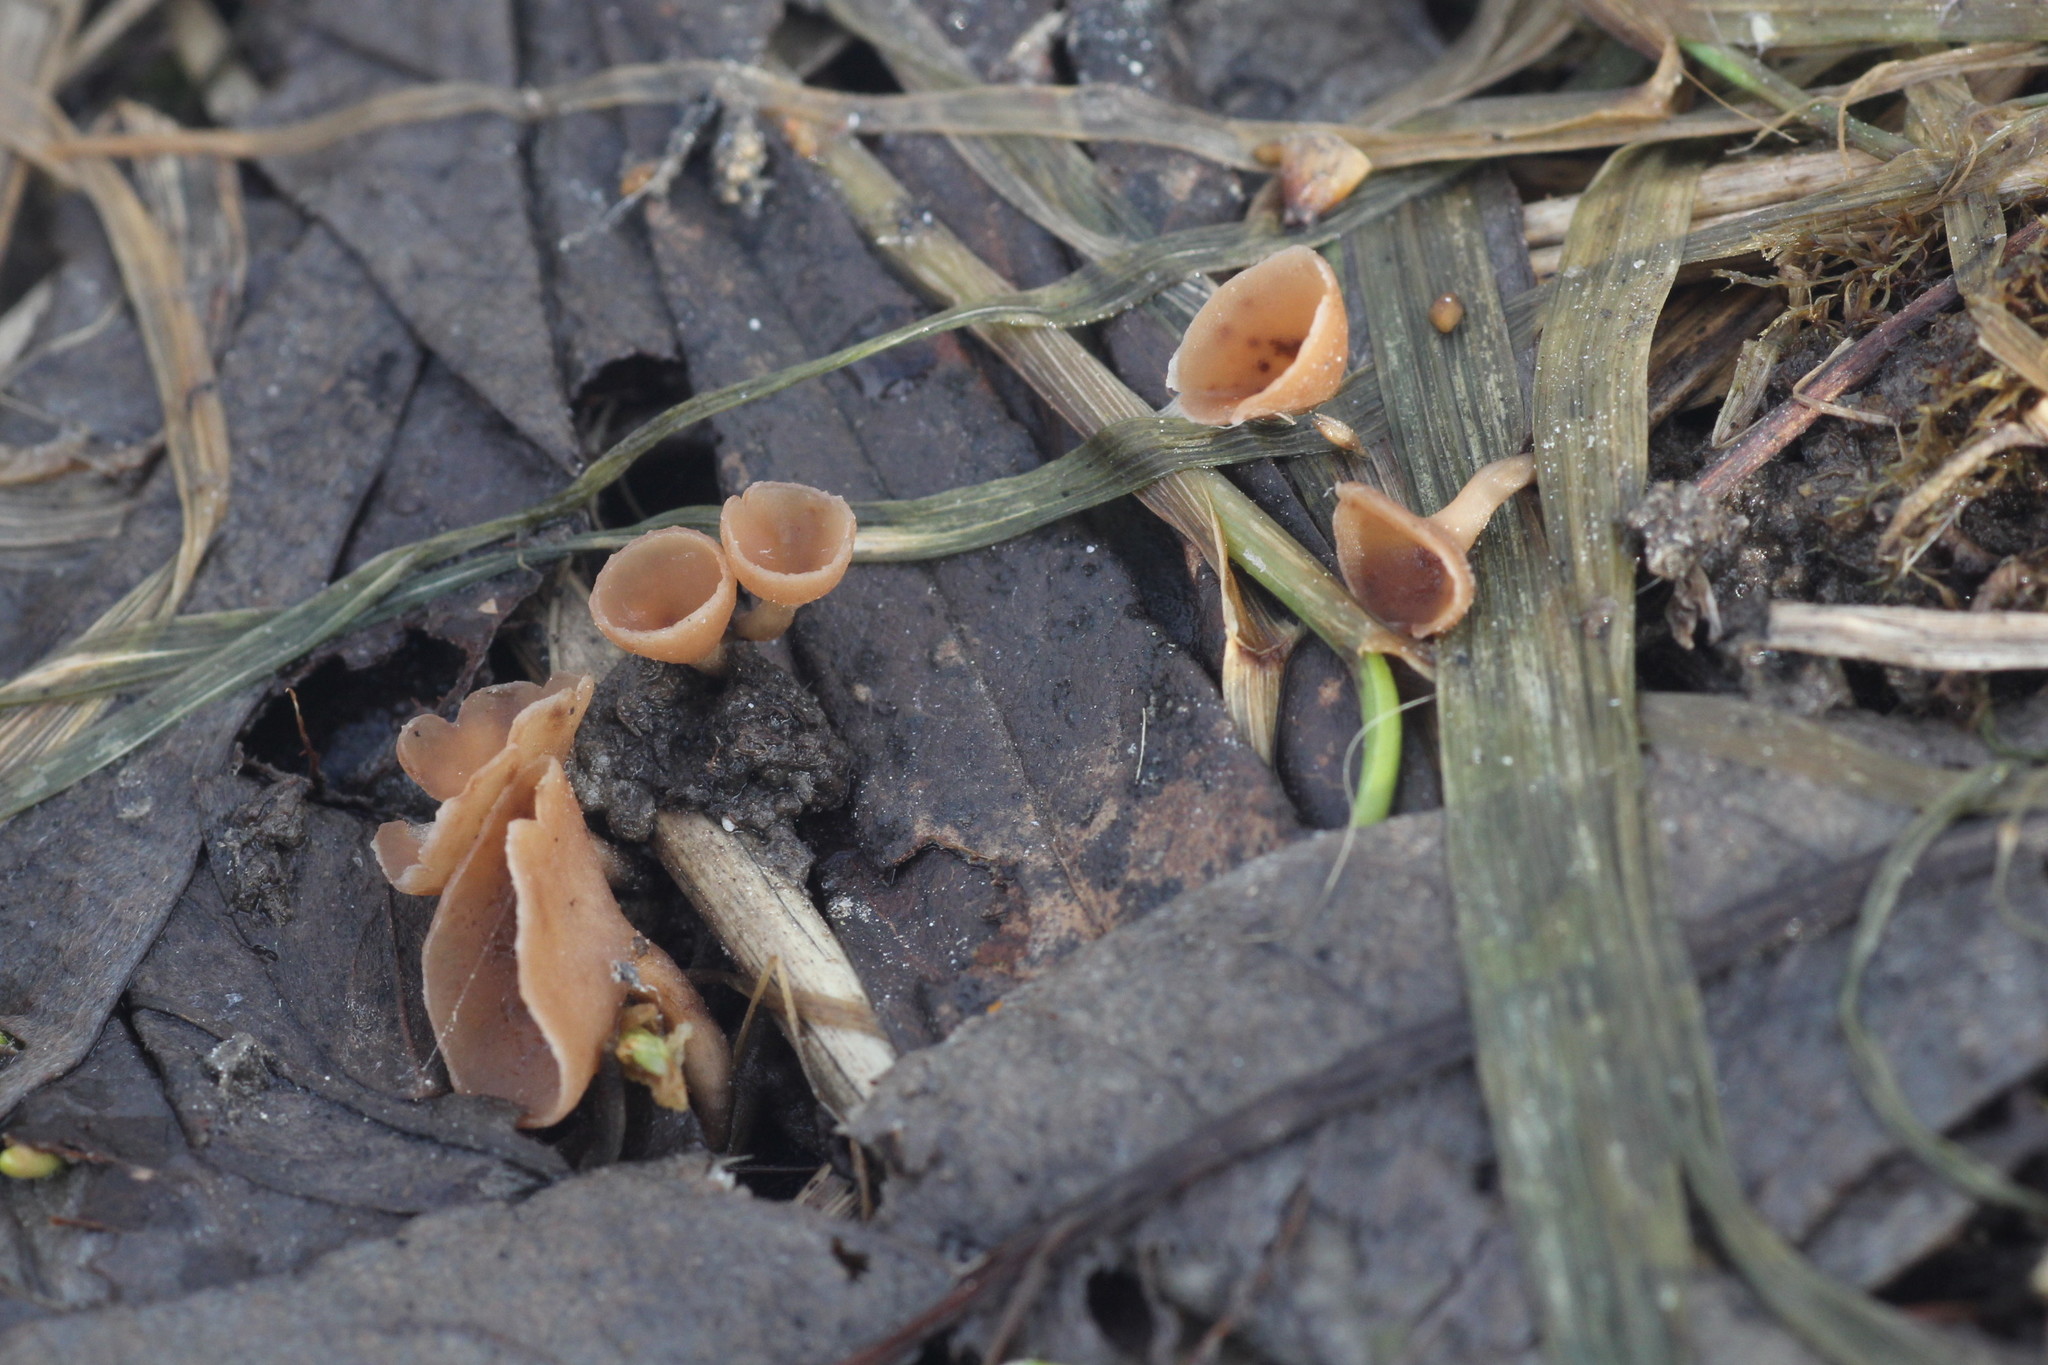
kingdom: Fungi
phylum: Ascomycota
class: Leotiomycetes
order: Helotiales
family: Sclerotiniaceae
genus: Ciboria
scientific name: Ciboria caucus
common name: Alder goblet
